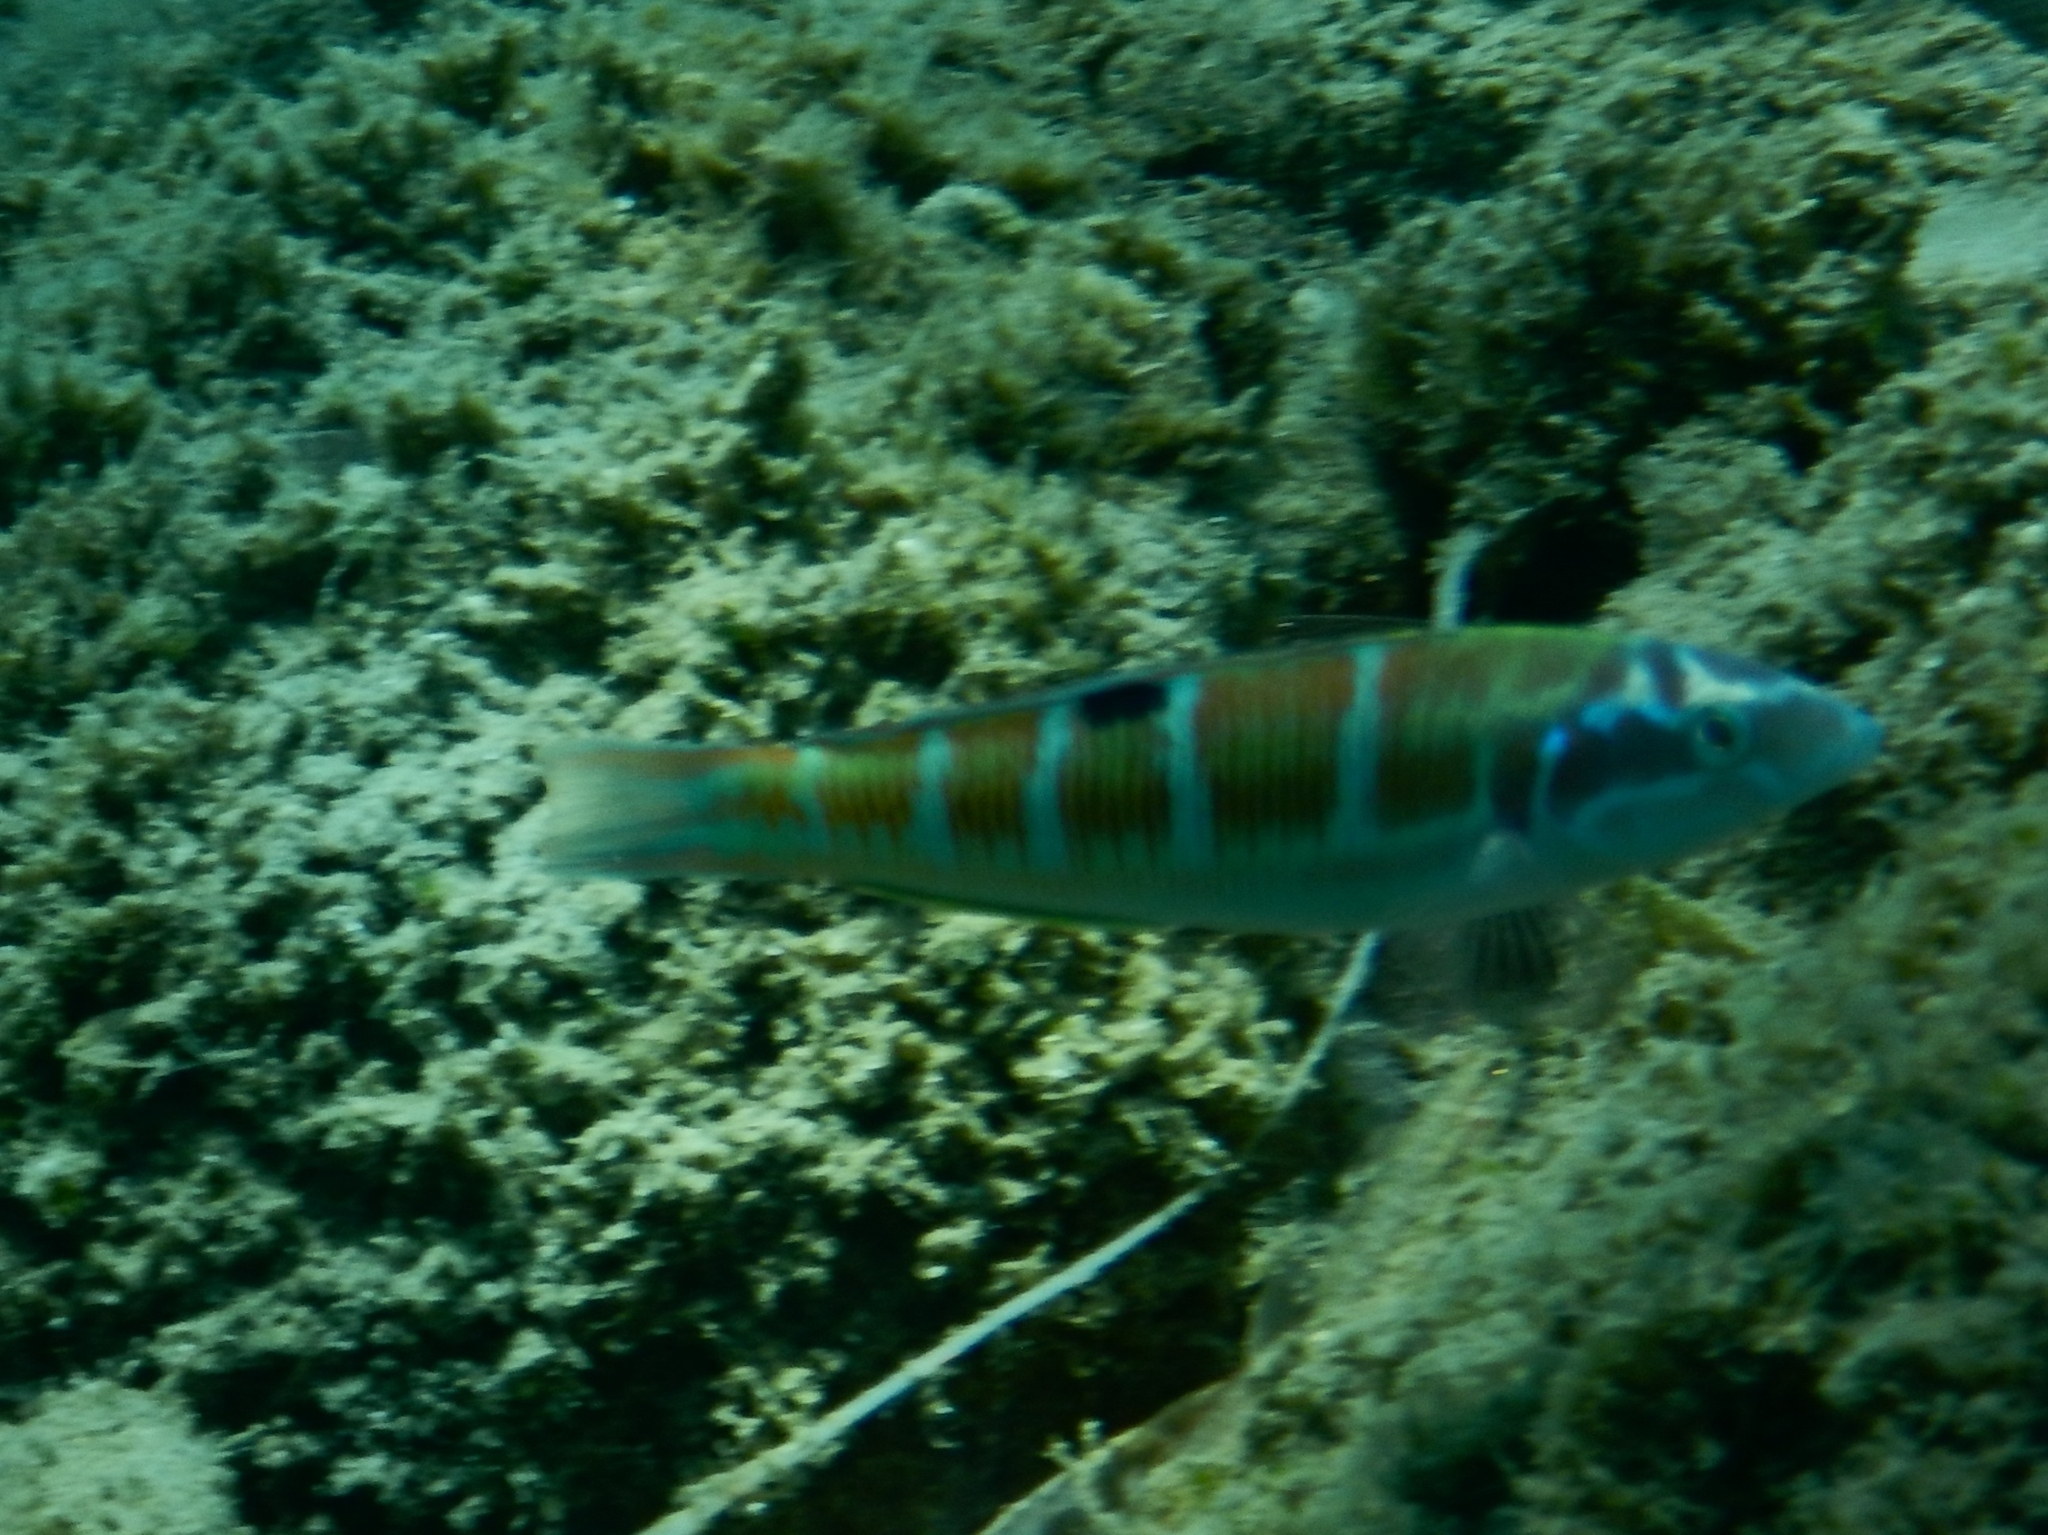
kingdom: Animalia
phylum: Chordata
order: Perciformes
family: Labridae
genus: Thalassoma
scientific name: Thalassoma pavo
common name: Ornate wrasse
